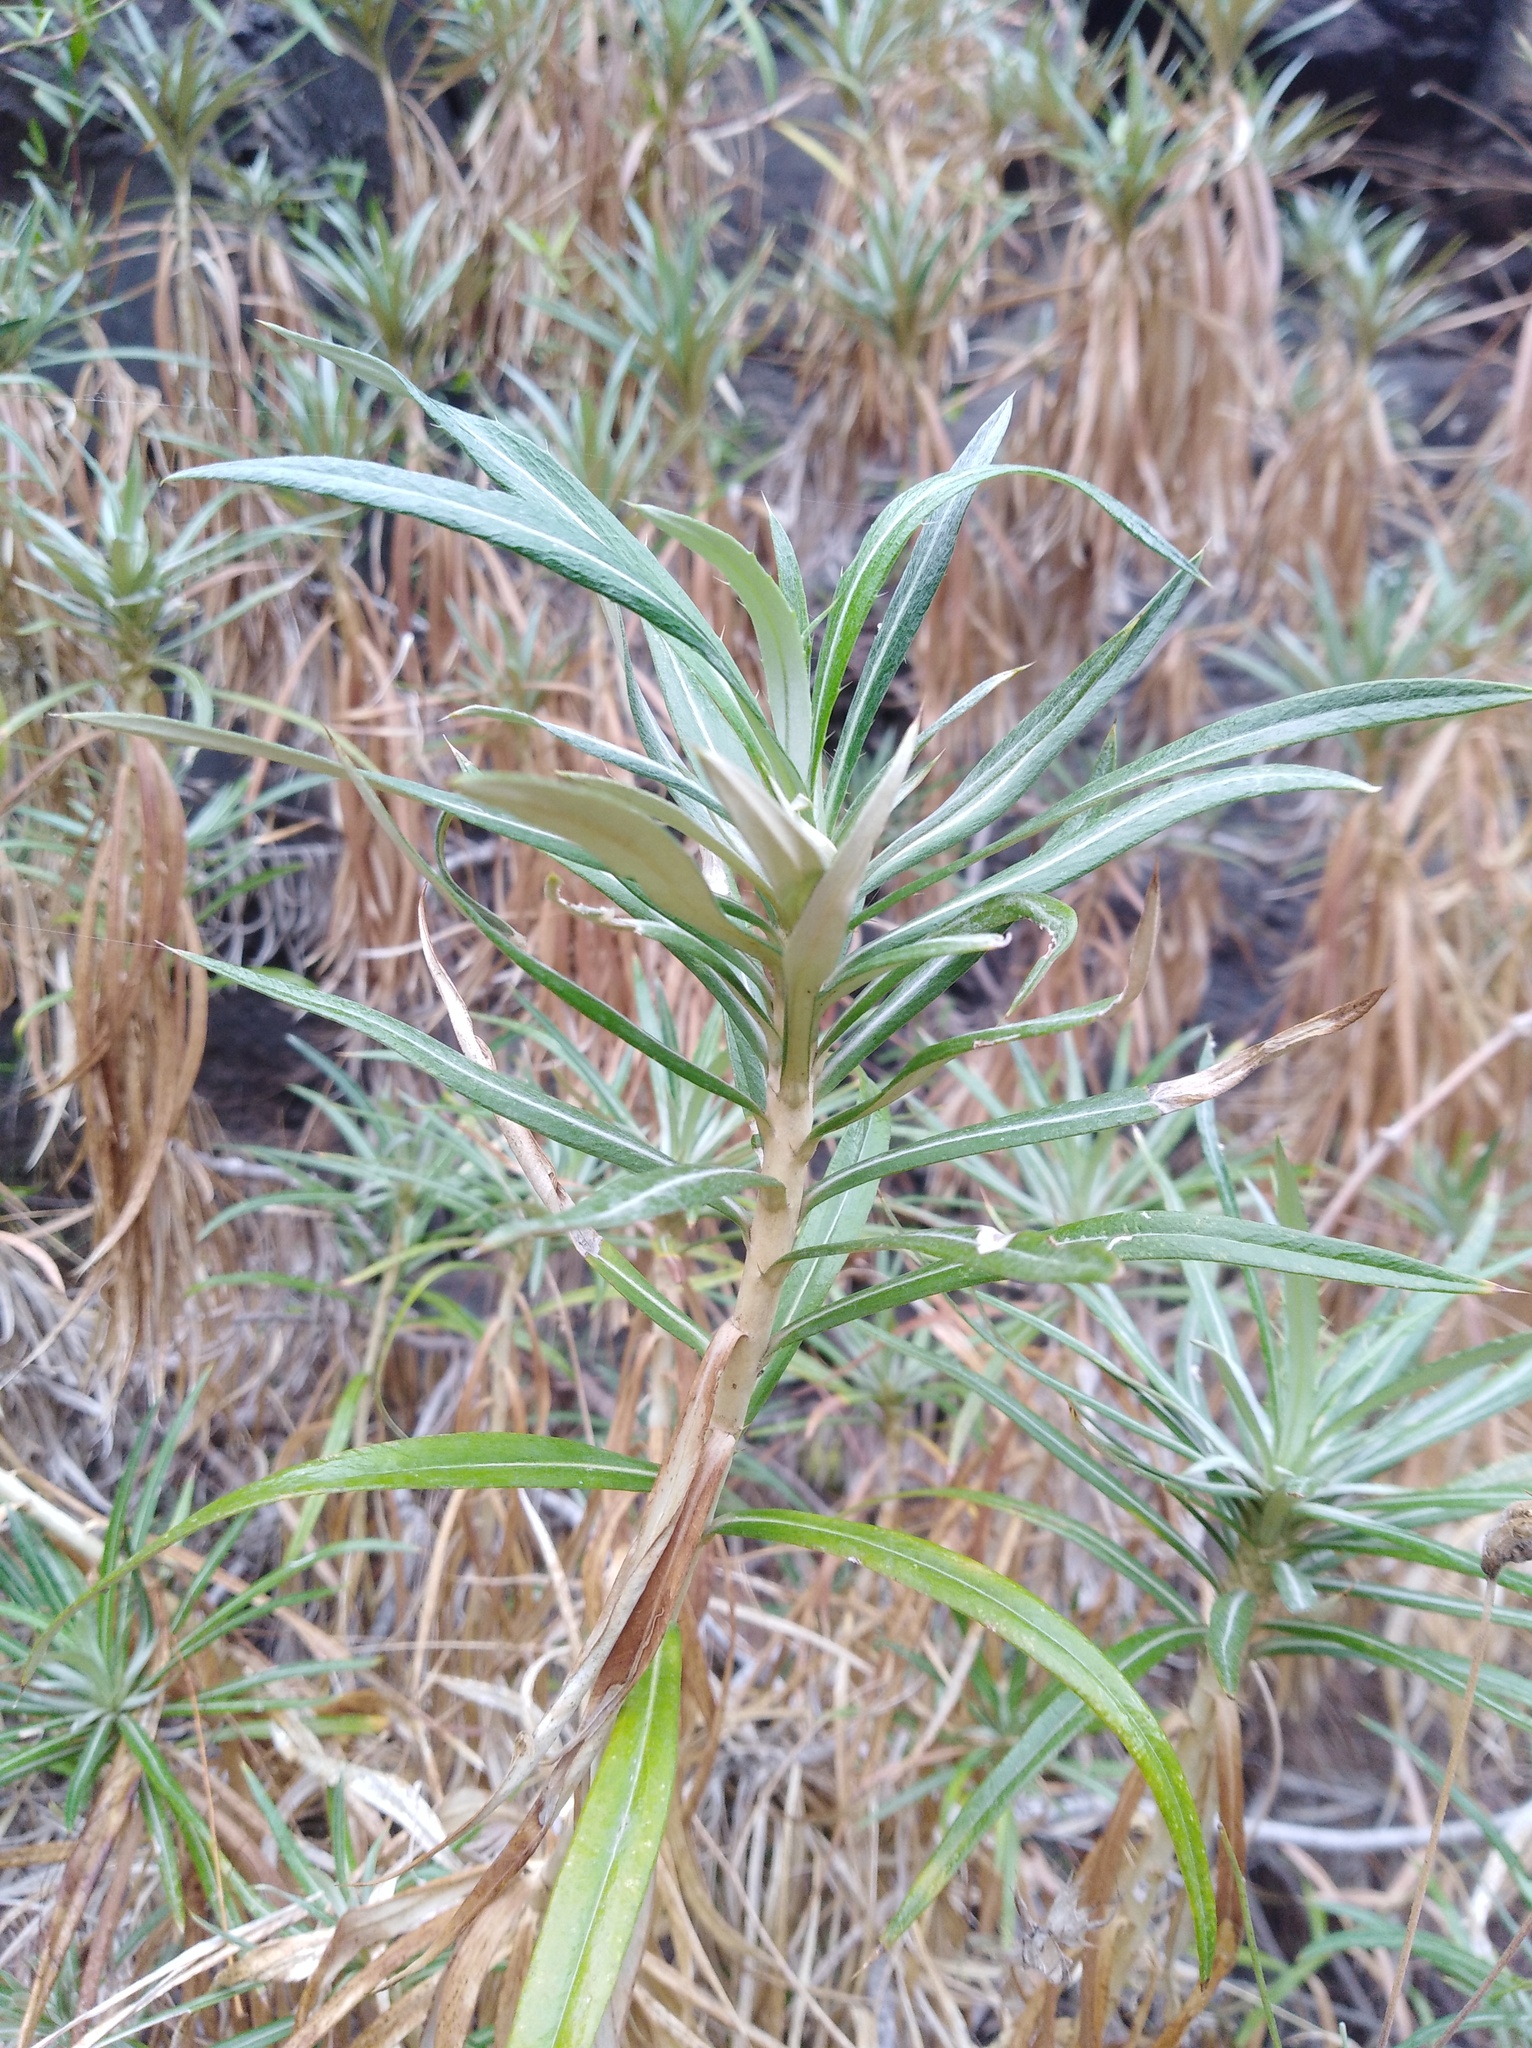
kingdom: Plantae
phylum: Tracheophyta
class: Magnoliopsida
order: Asterales
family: Asteraceae
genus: Carlina
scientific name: Carlina salicifolia
